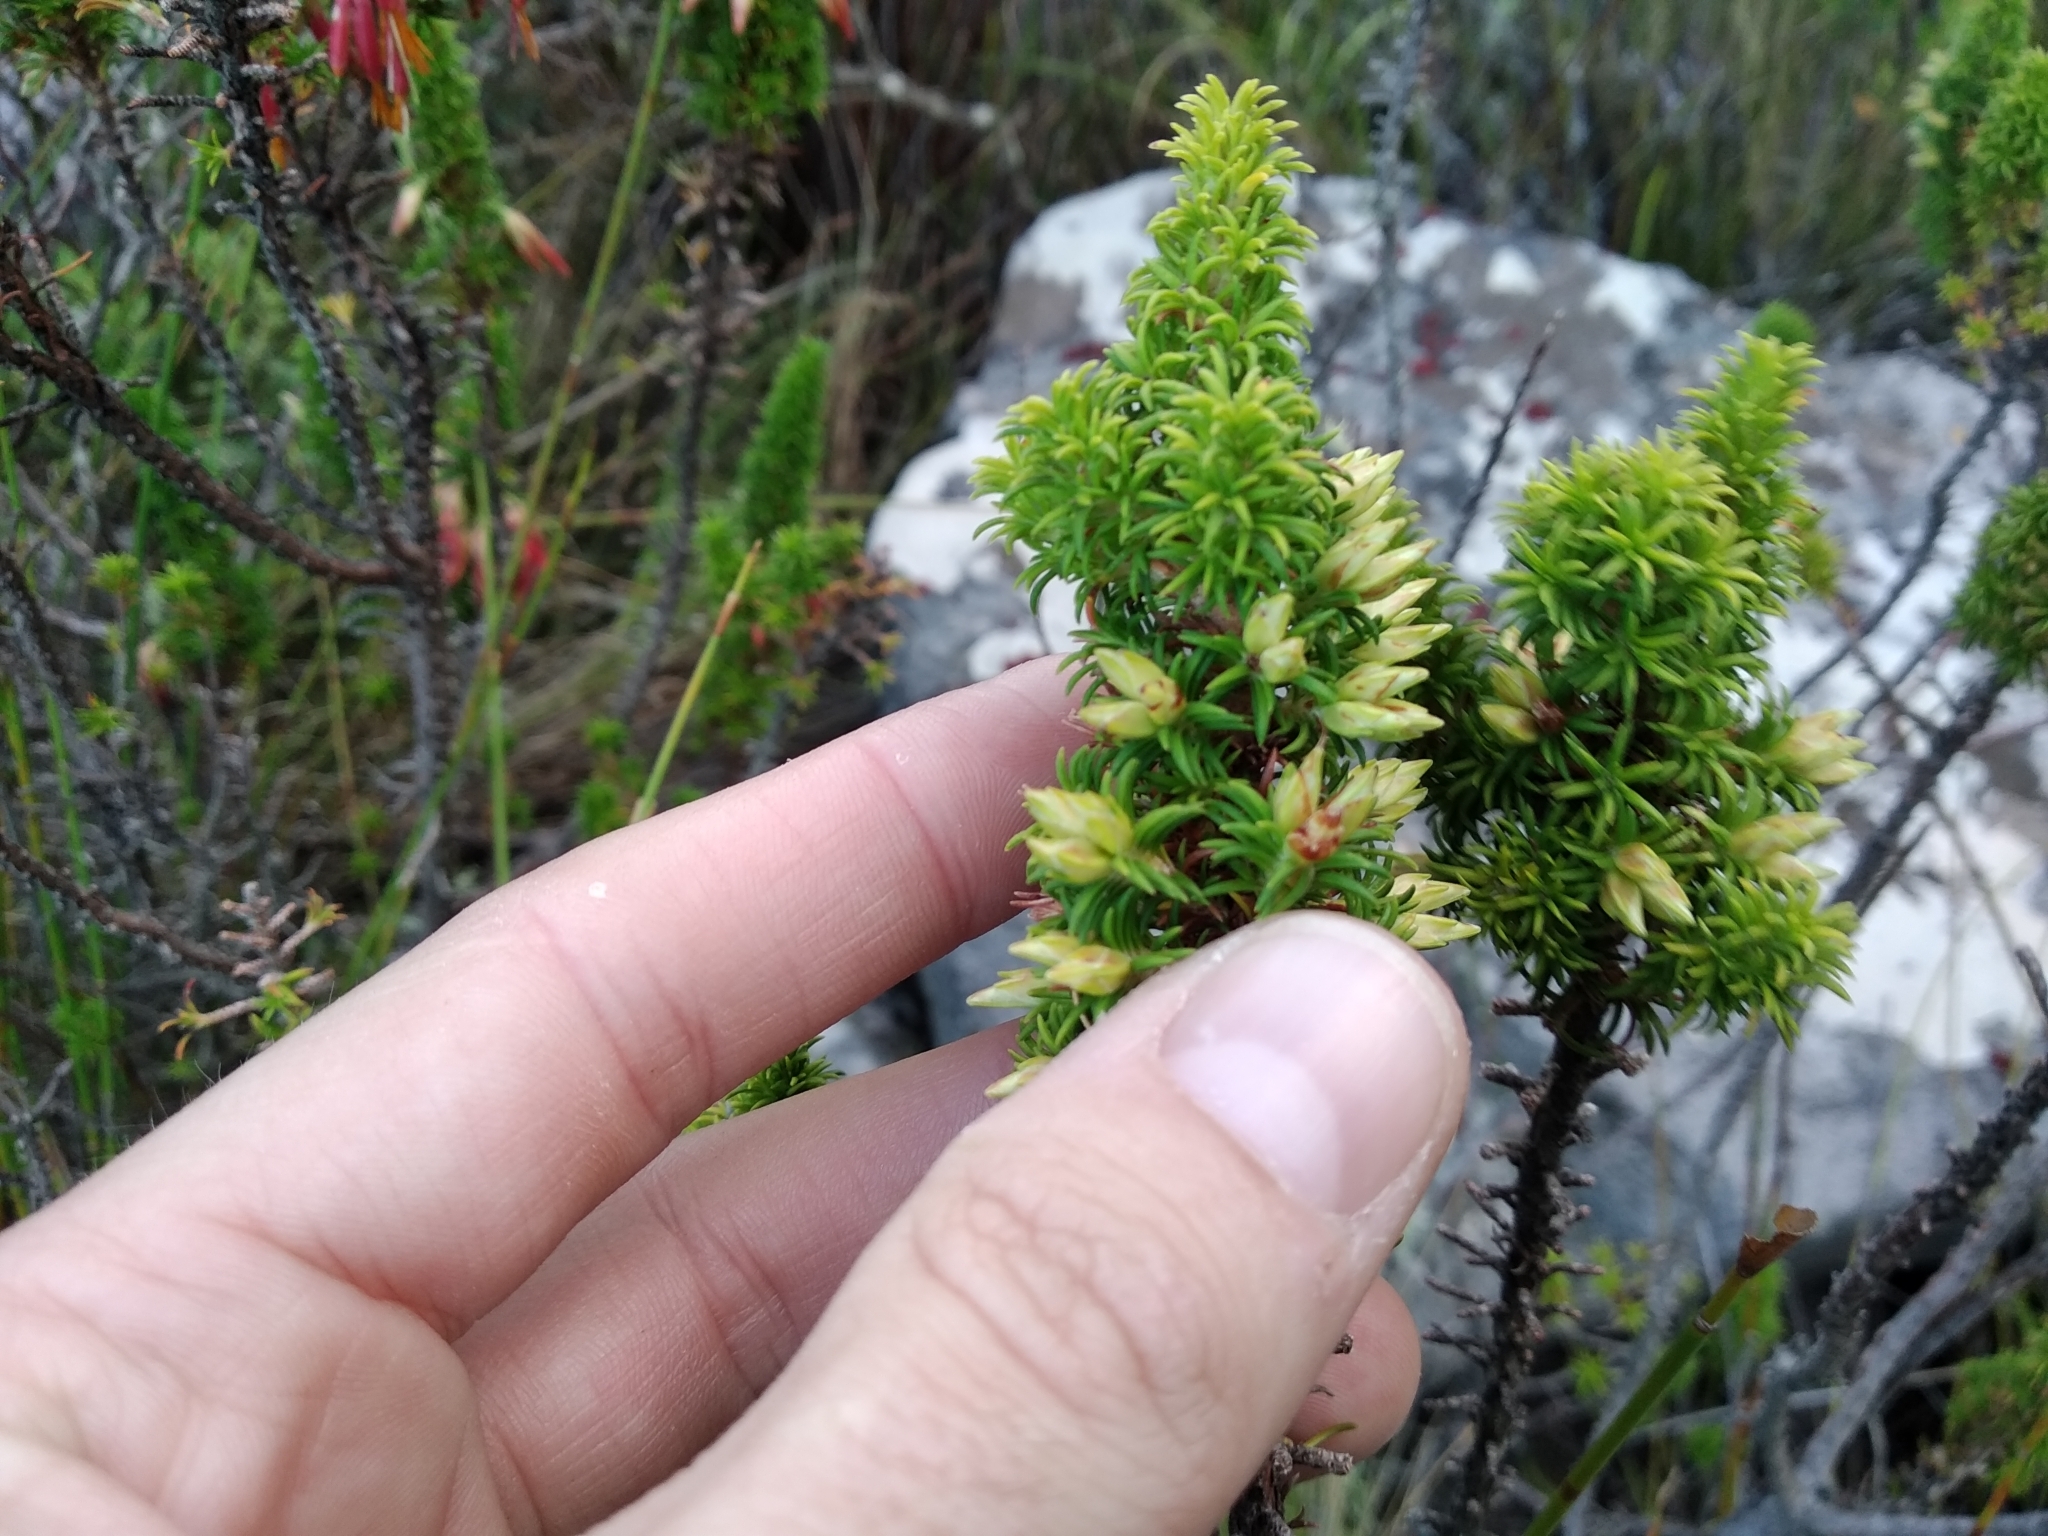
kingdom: Plantae
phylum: Tracheophyta
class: Magnoliopsida
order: Ericales
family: Ericaceae
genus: Erica
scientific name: Erica coccinea
